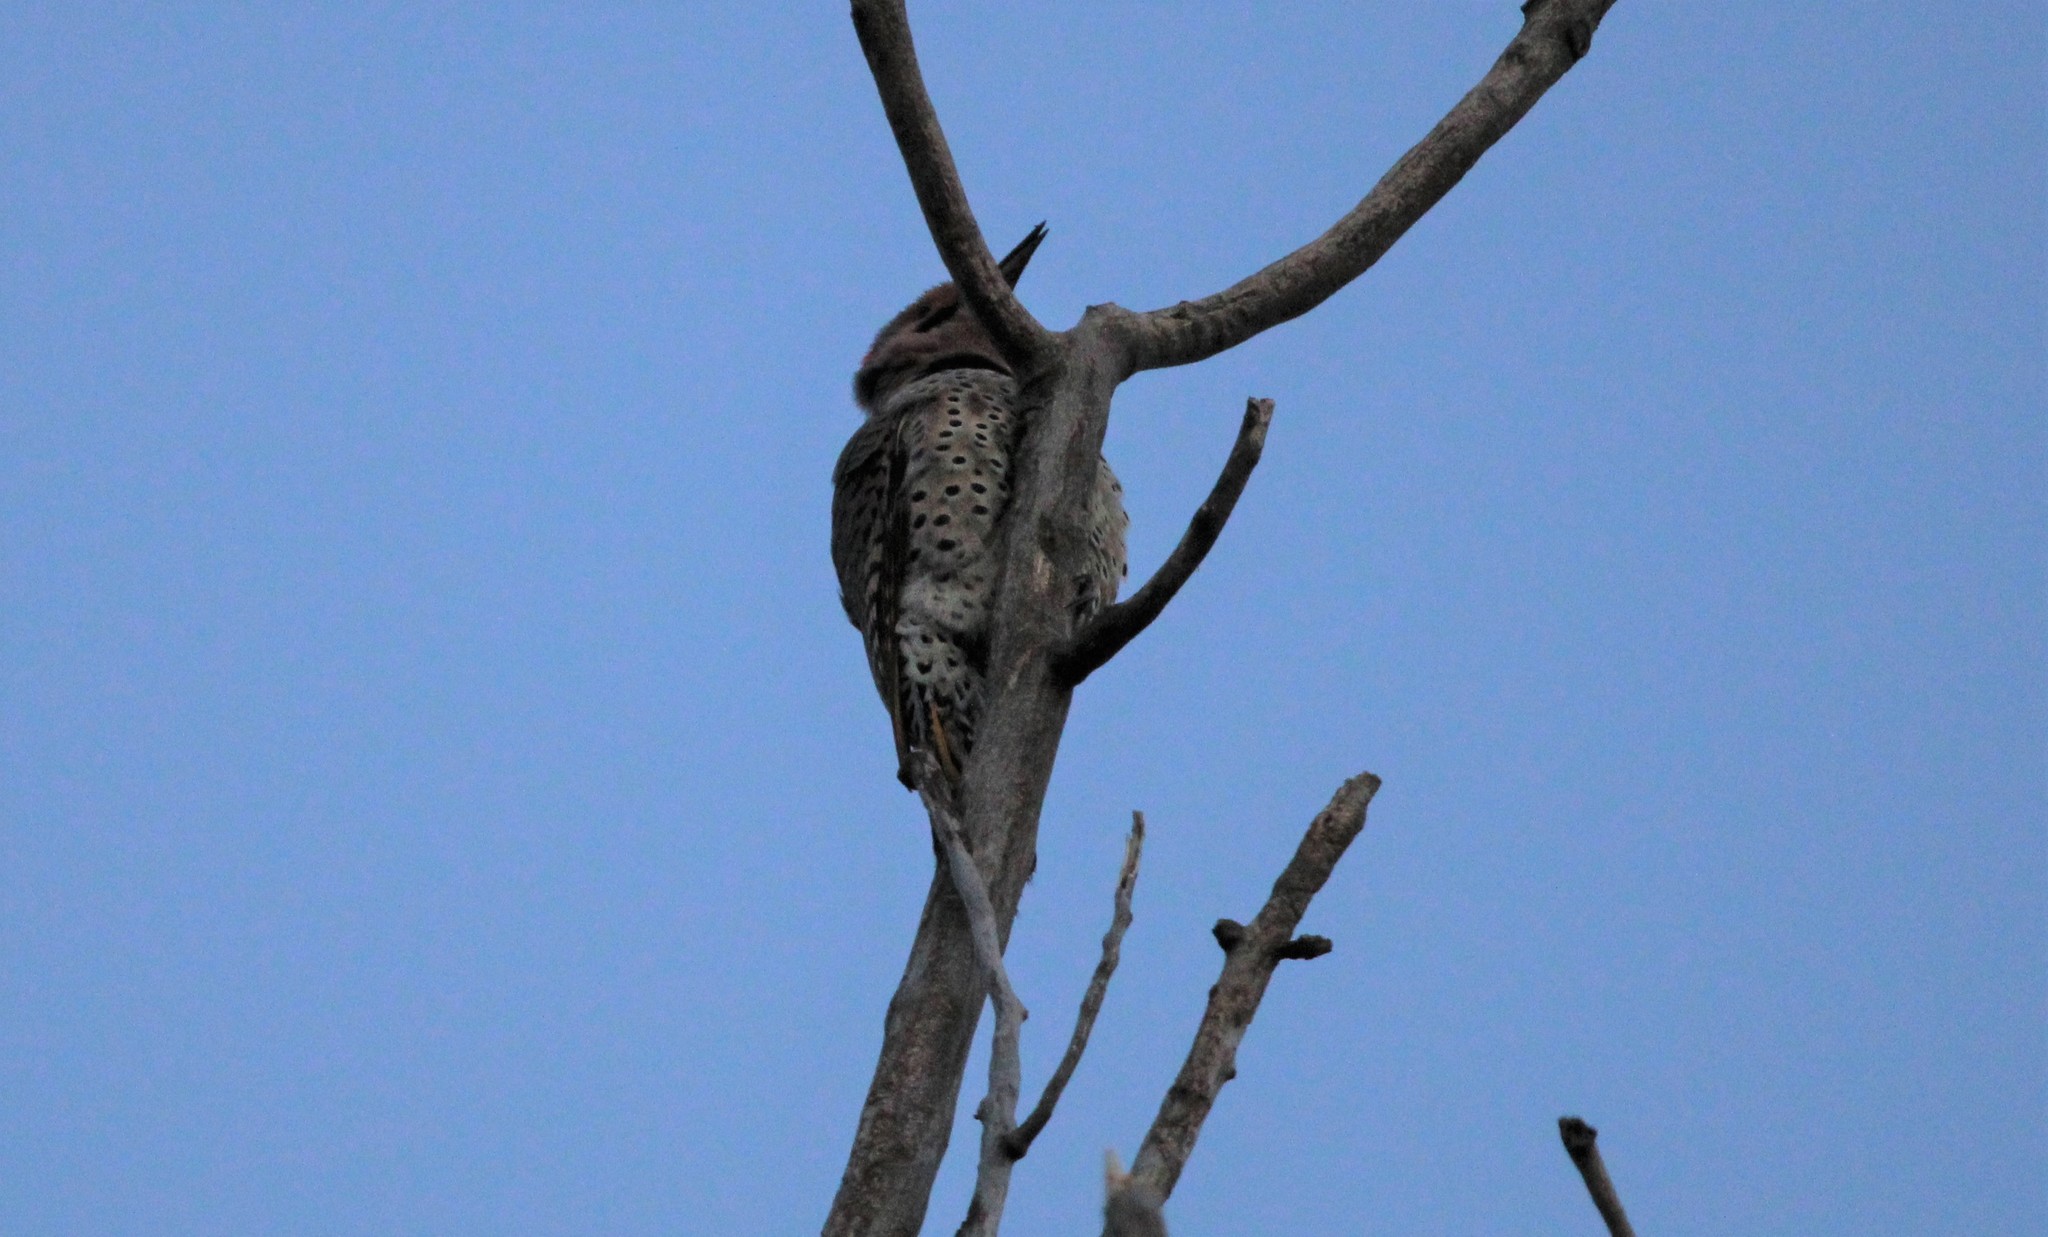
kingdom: Animalia
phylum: Chordata
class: Aves
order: Piciformes
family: Picidae
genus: Colaptes
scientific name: Colaptes auratus
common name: Northern flicker
